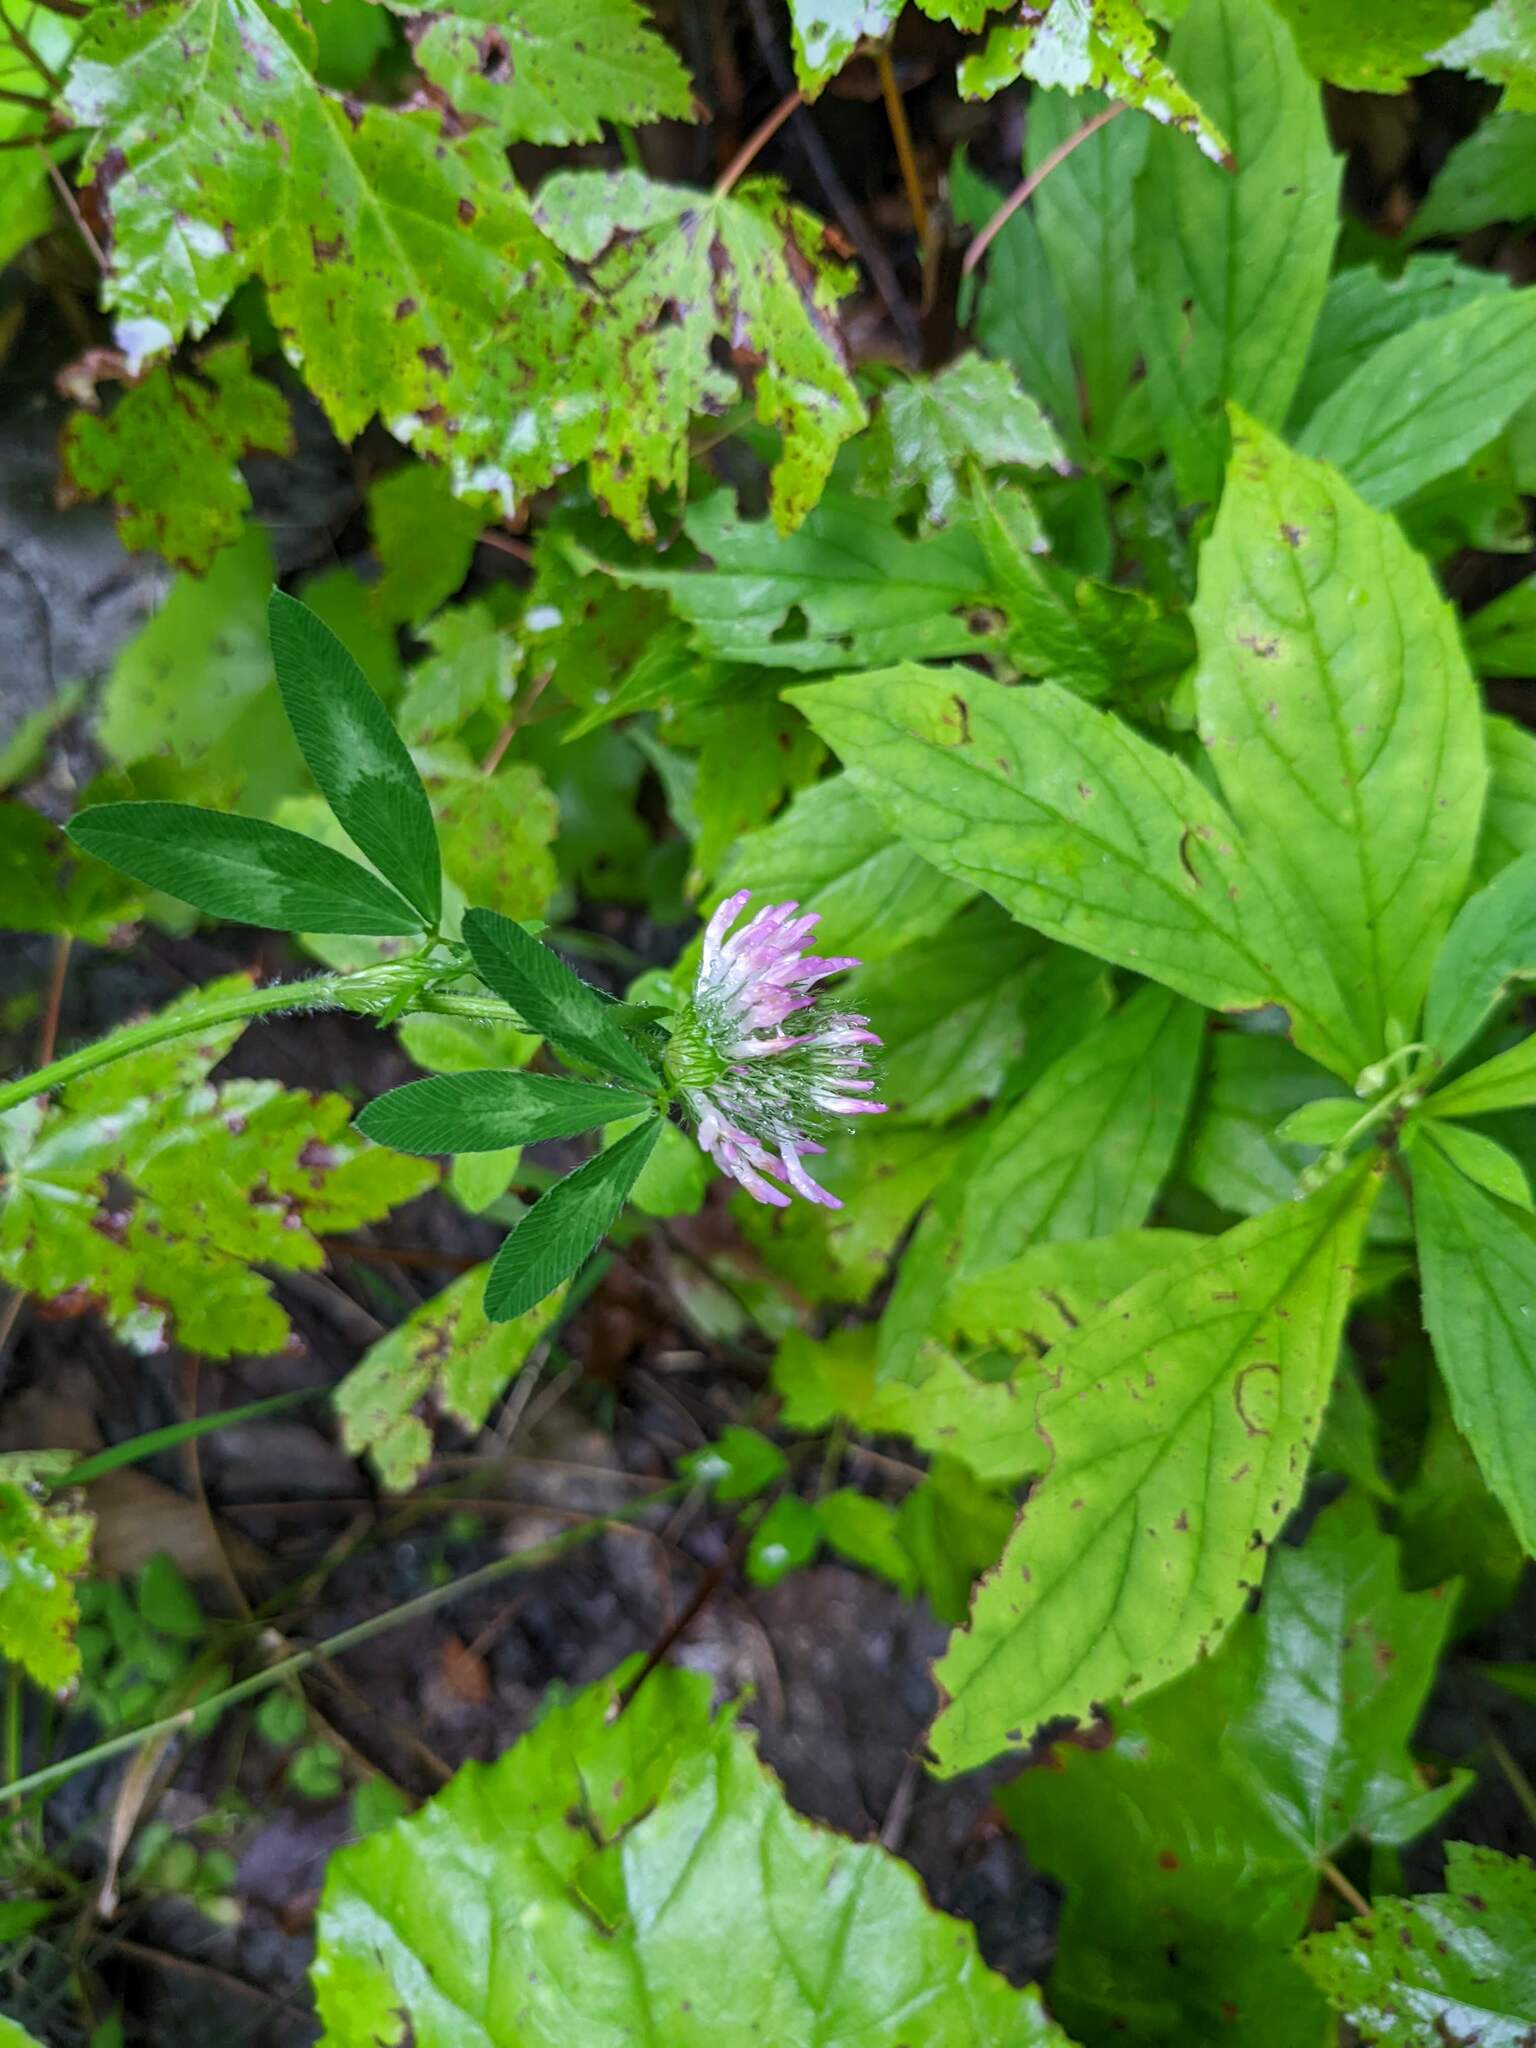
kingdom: Plantae
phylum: Tracheophyta
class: Magnoliopsida
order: Fabales
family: Fabaceae
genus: Trifolium
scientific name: Trifolium pratense
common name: Red clover
